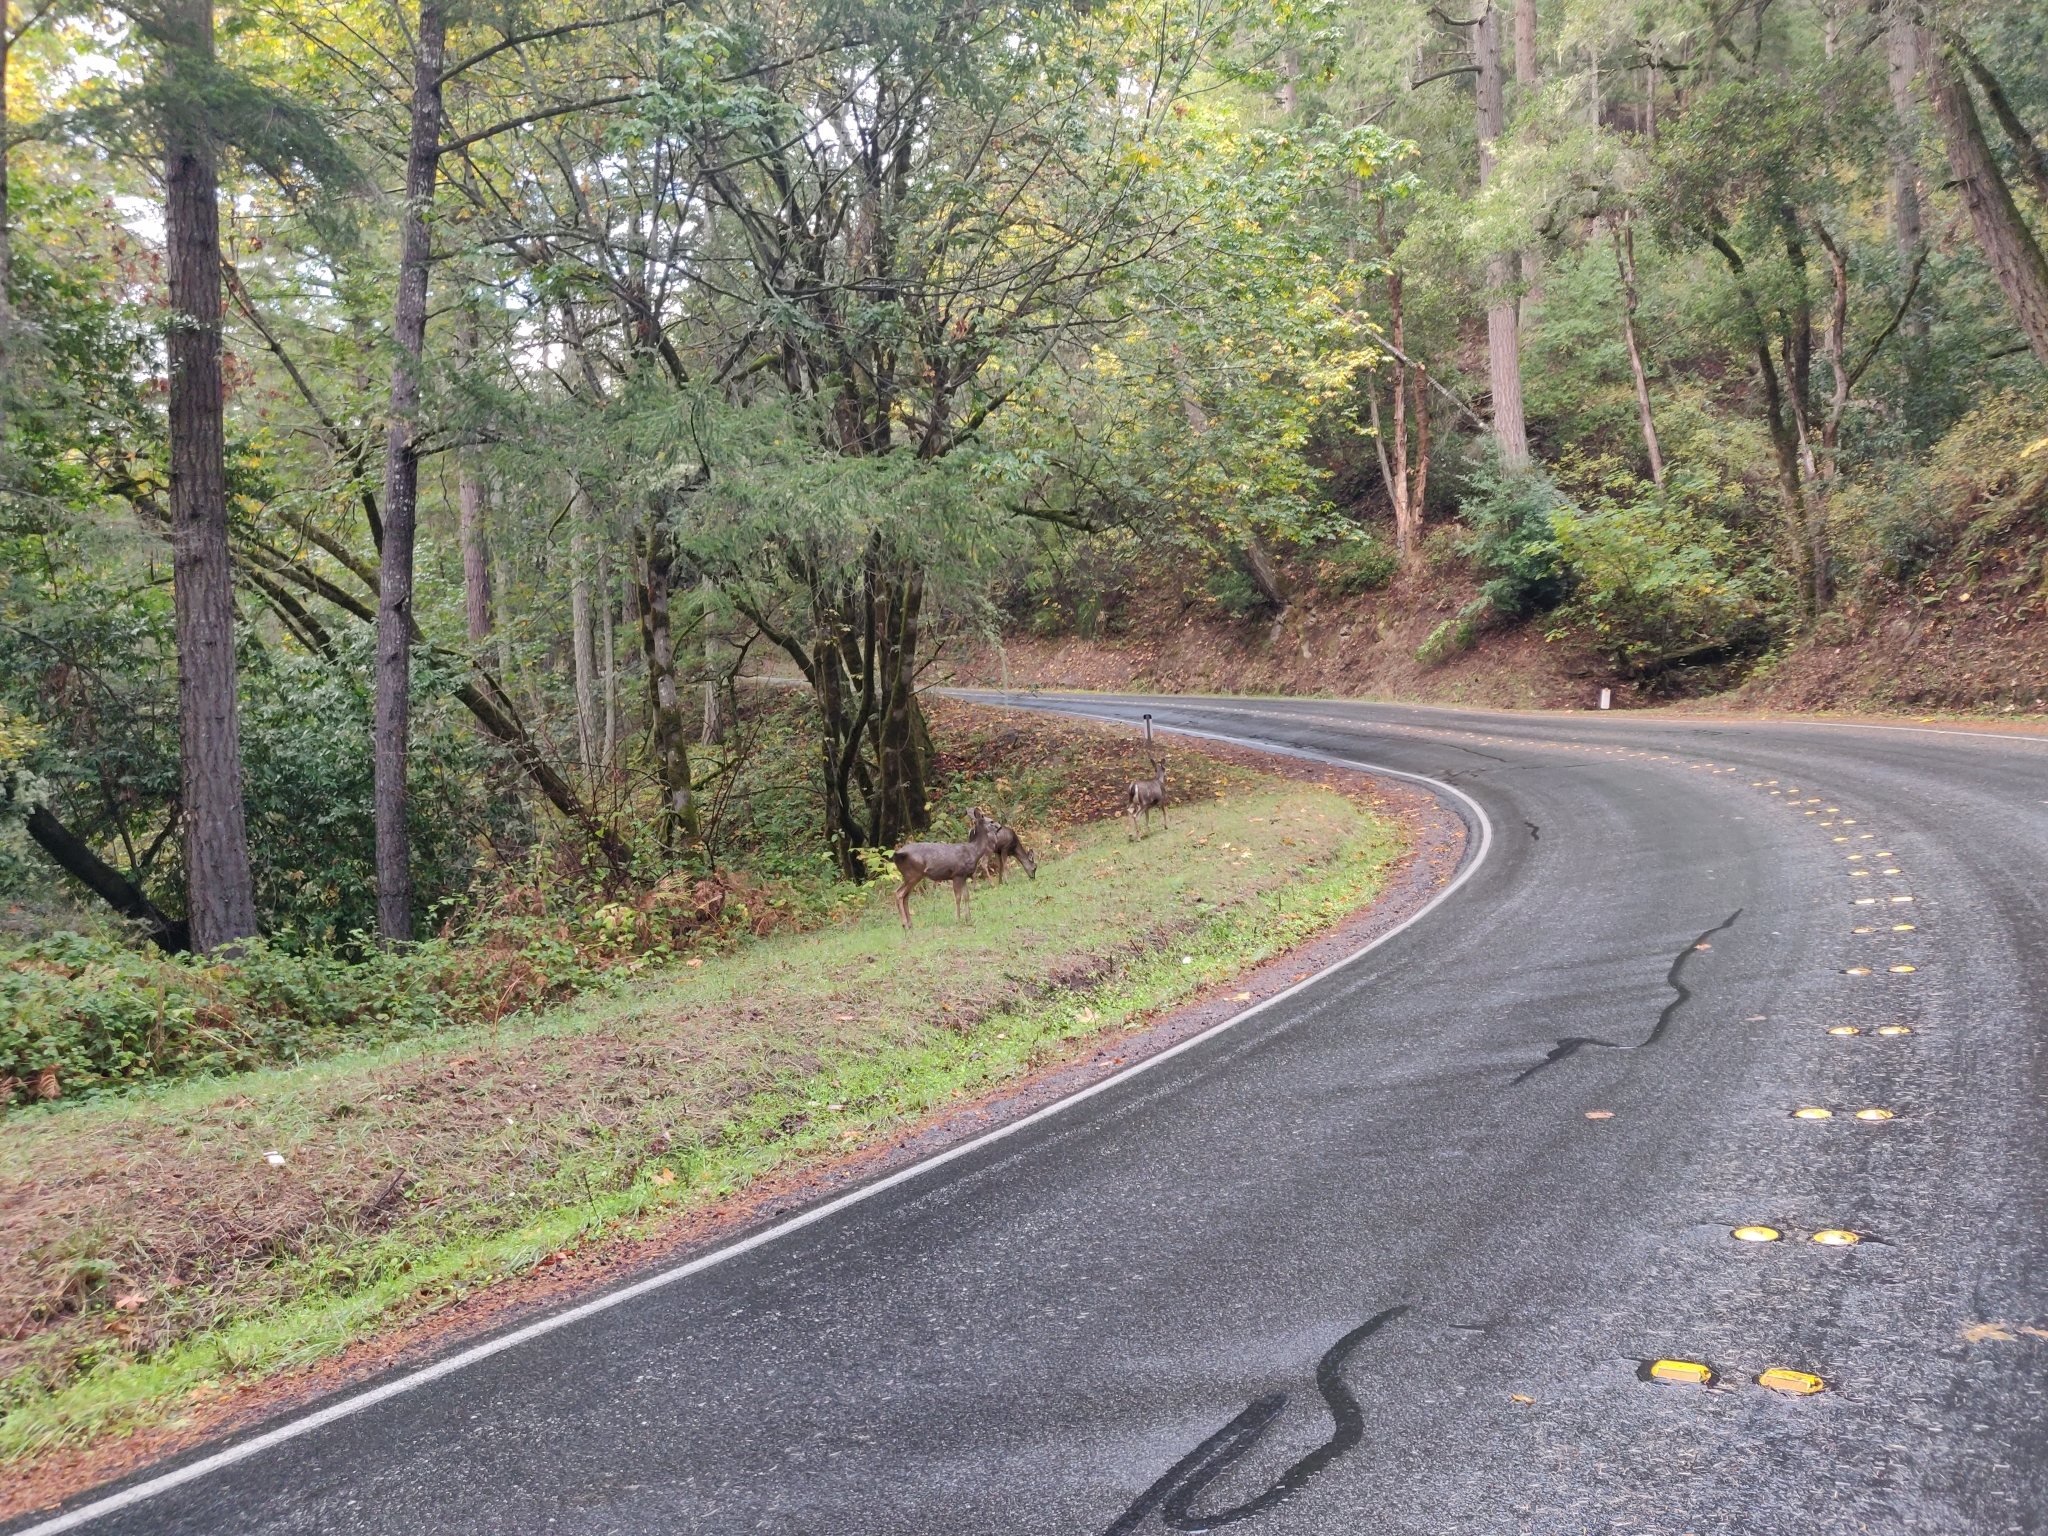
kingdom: Animalia
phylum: Chordata
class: Mammalia
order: Artiodactyla
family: Cervidae
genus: Odocoileus
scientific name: Odocoileus hemionus
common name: Mule deer
